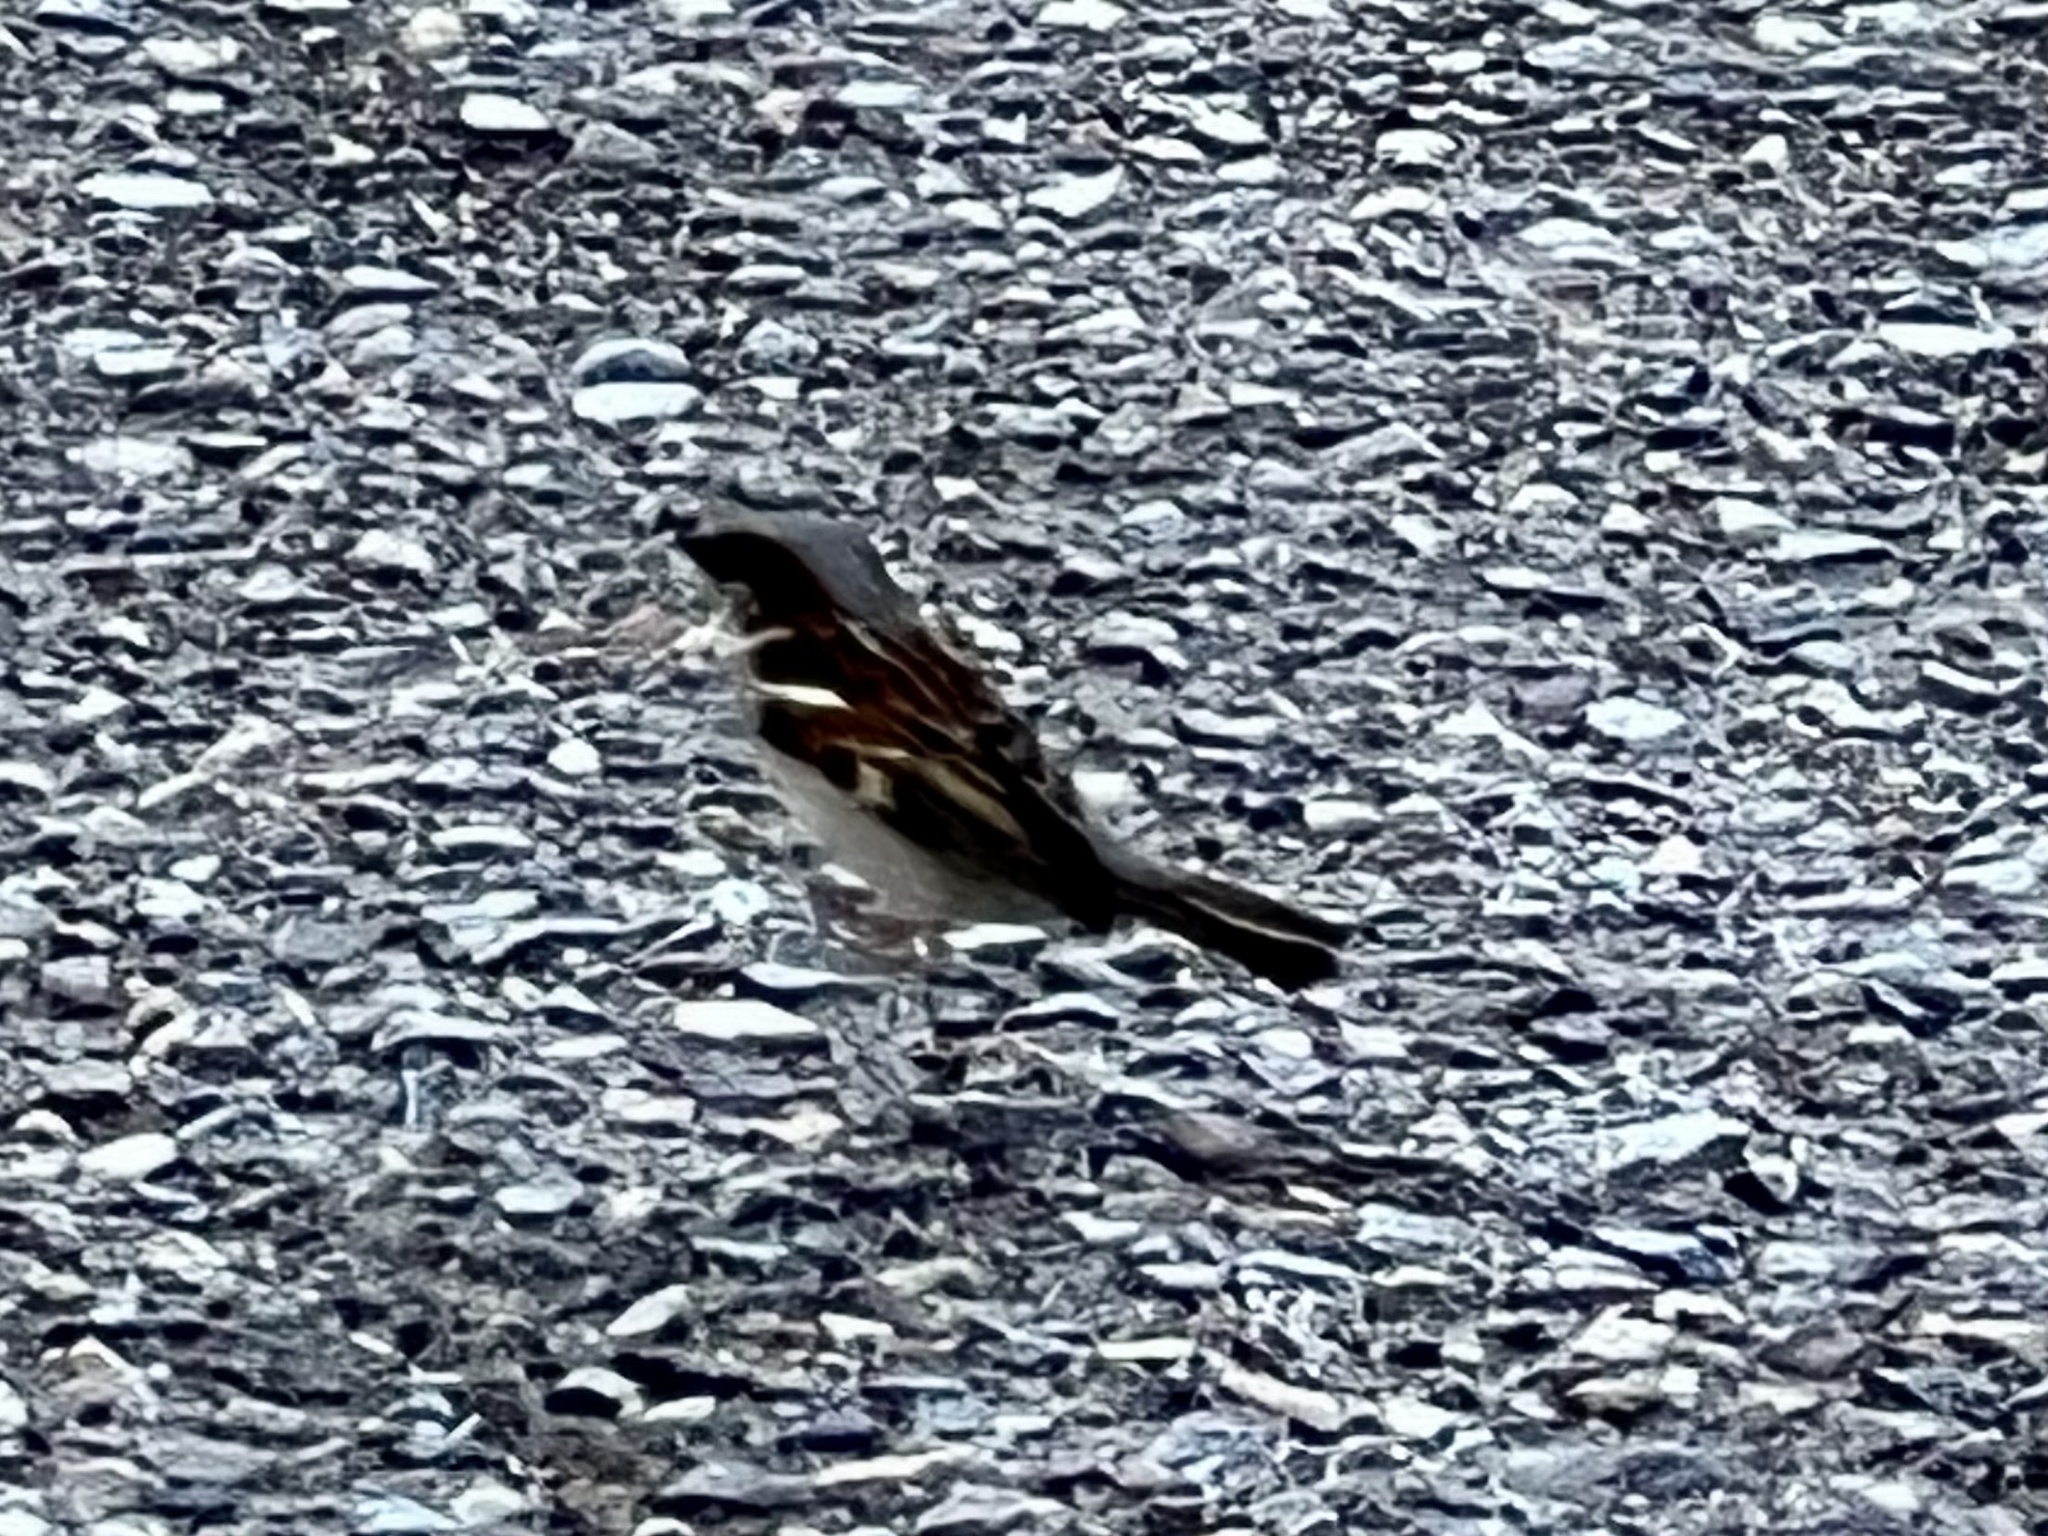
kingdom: Animalia
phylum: Chordata
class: Aves
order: Passeriformes
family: Passeridae
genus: Passer
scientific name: Passer domesticus
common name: House sparrow
